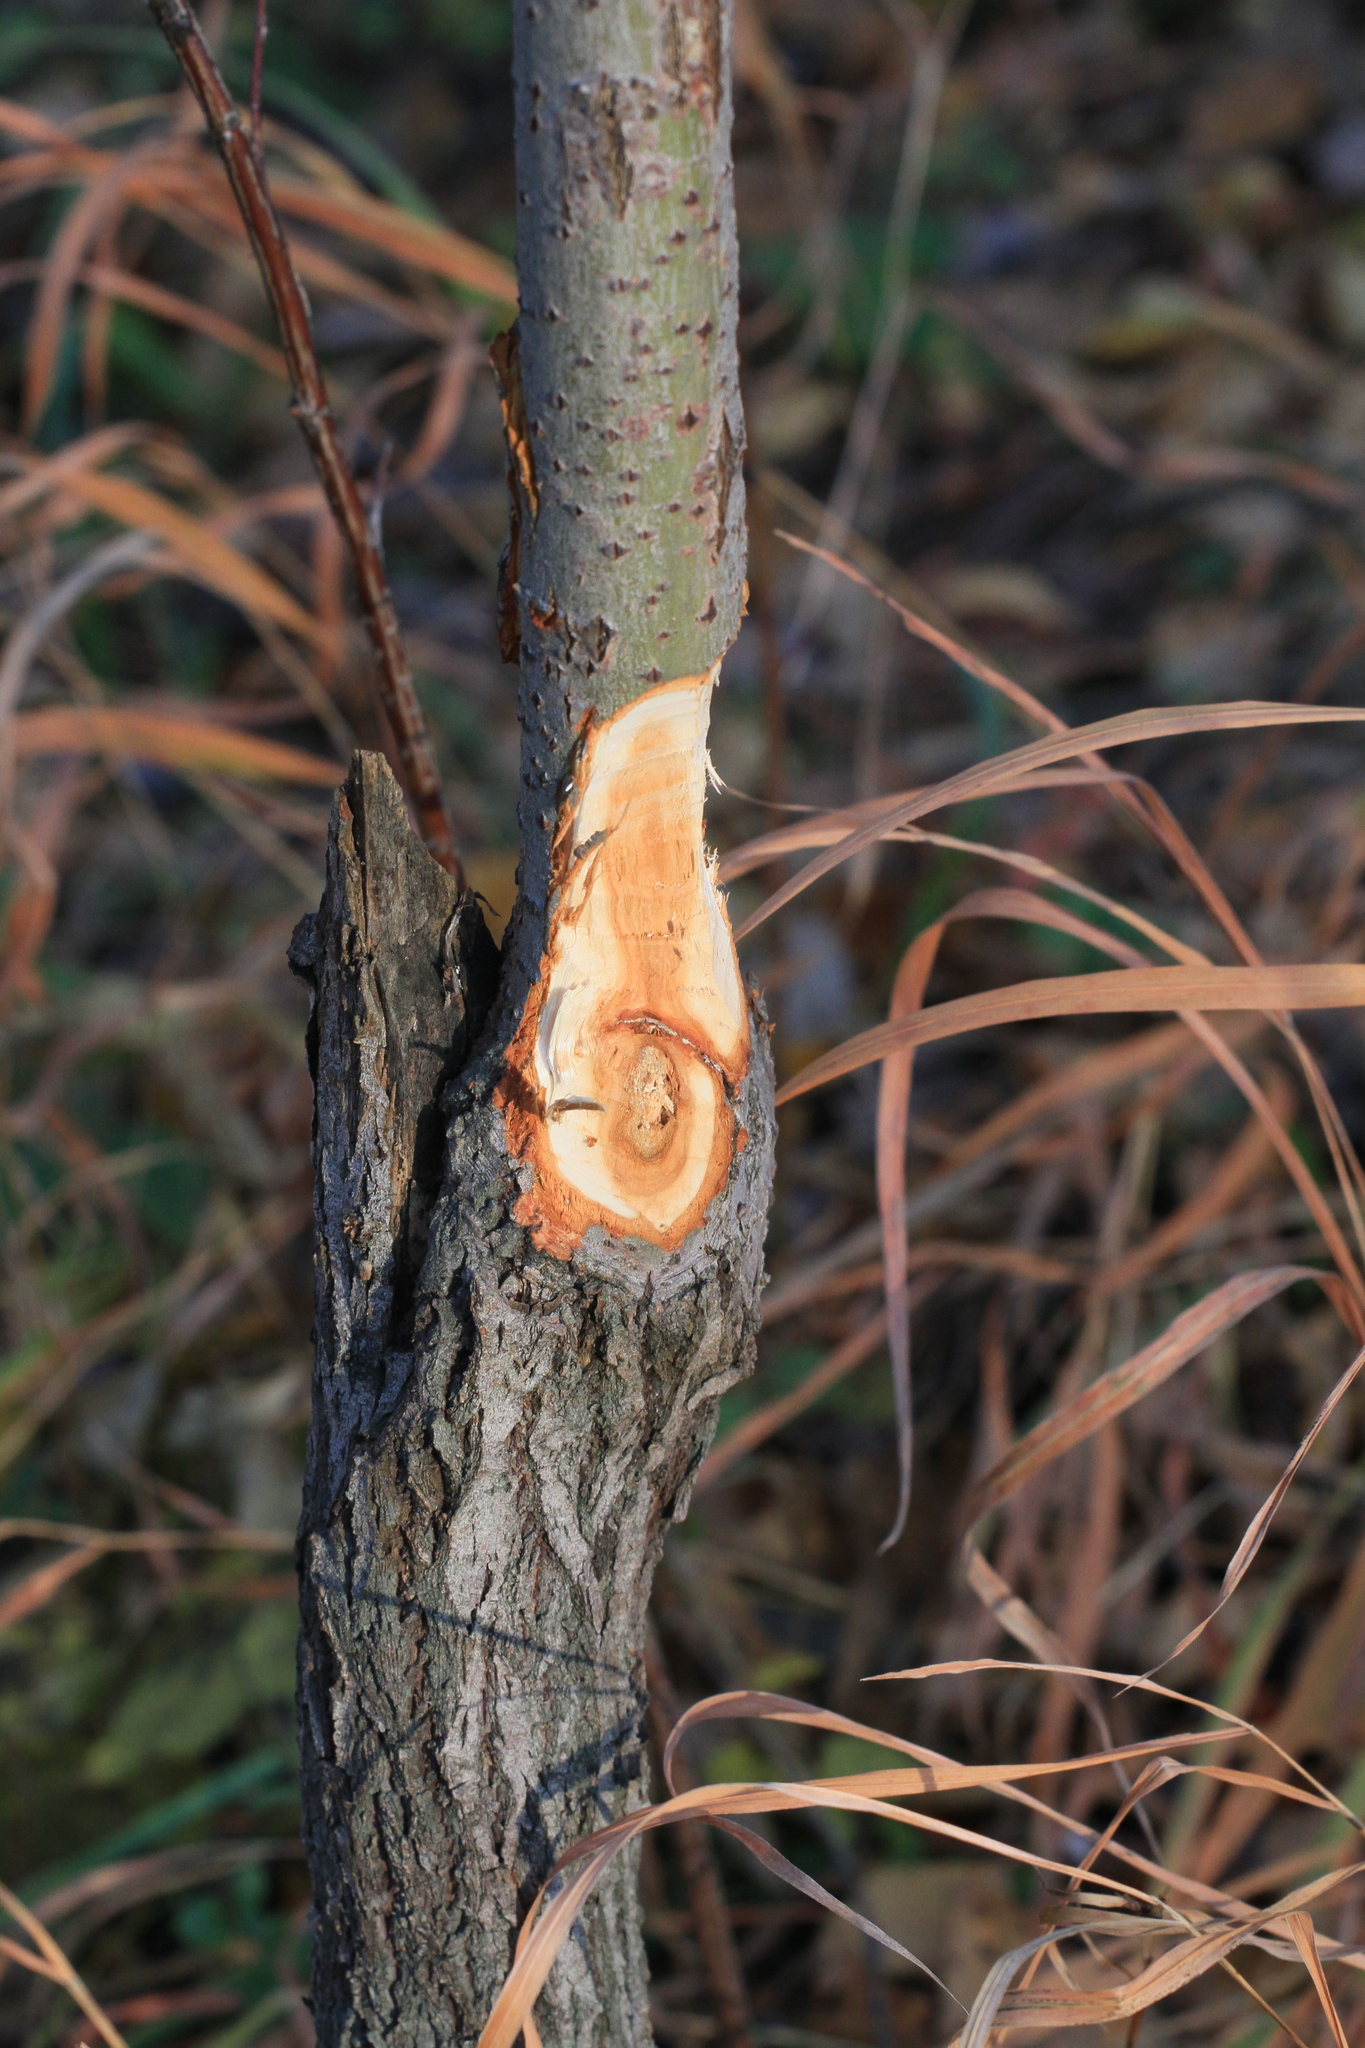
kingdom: Animalia
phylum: Chordata
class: Mammalia
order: Rodentia
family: Castoridae
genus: Castor
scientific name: Castor fiber
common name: Eurasian beaver
